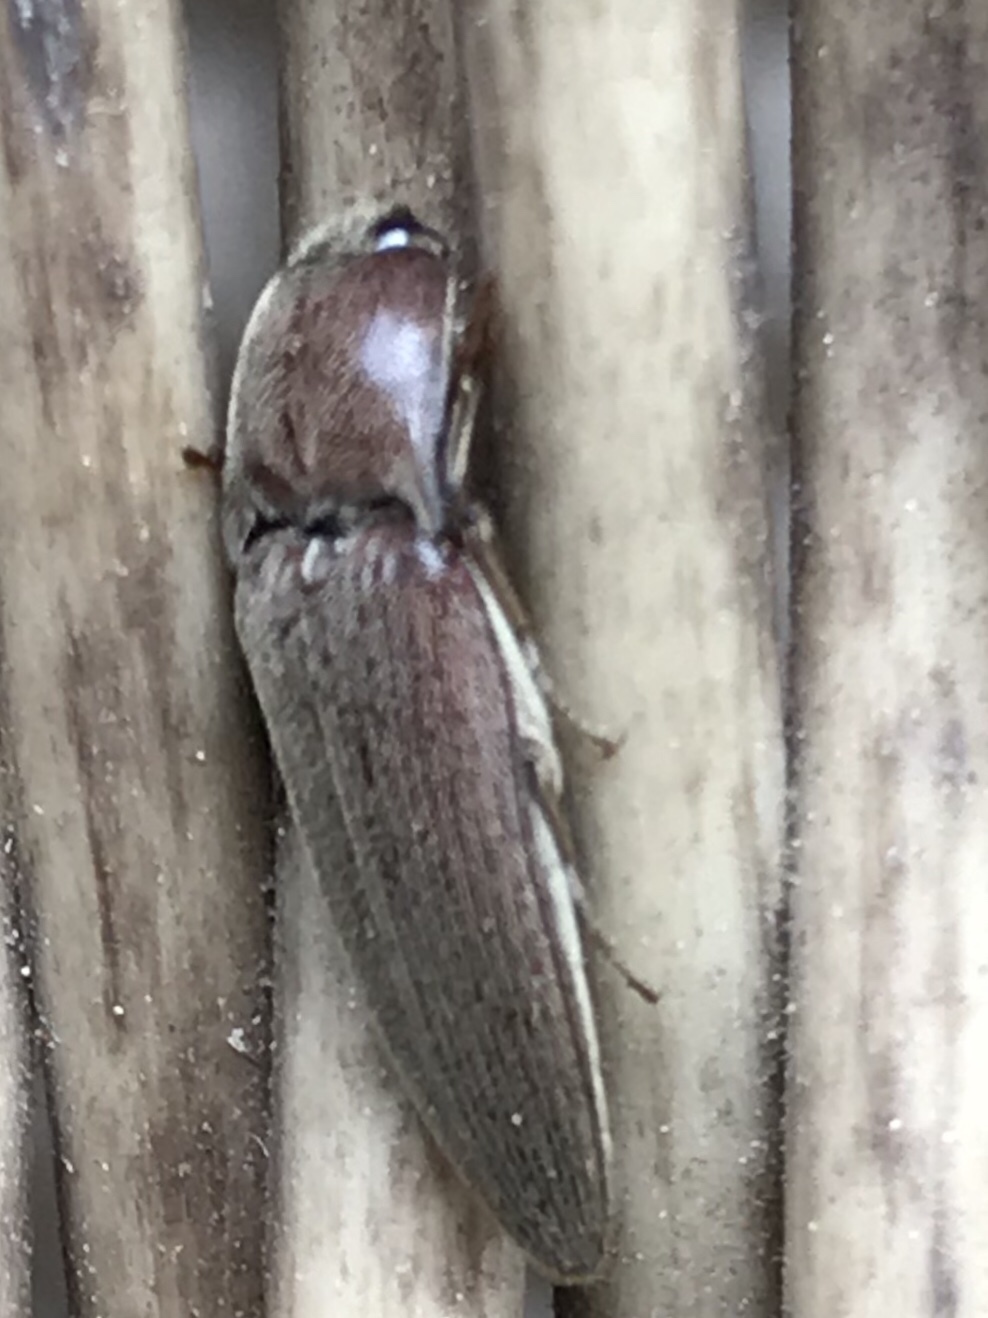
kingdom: Animalia
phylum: Arthropoda
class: Insecta
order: Coleoptera
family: Elateridae
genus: Melanotus
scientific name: Melanotus
